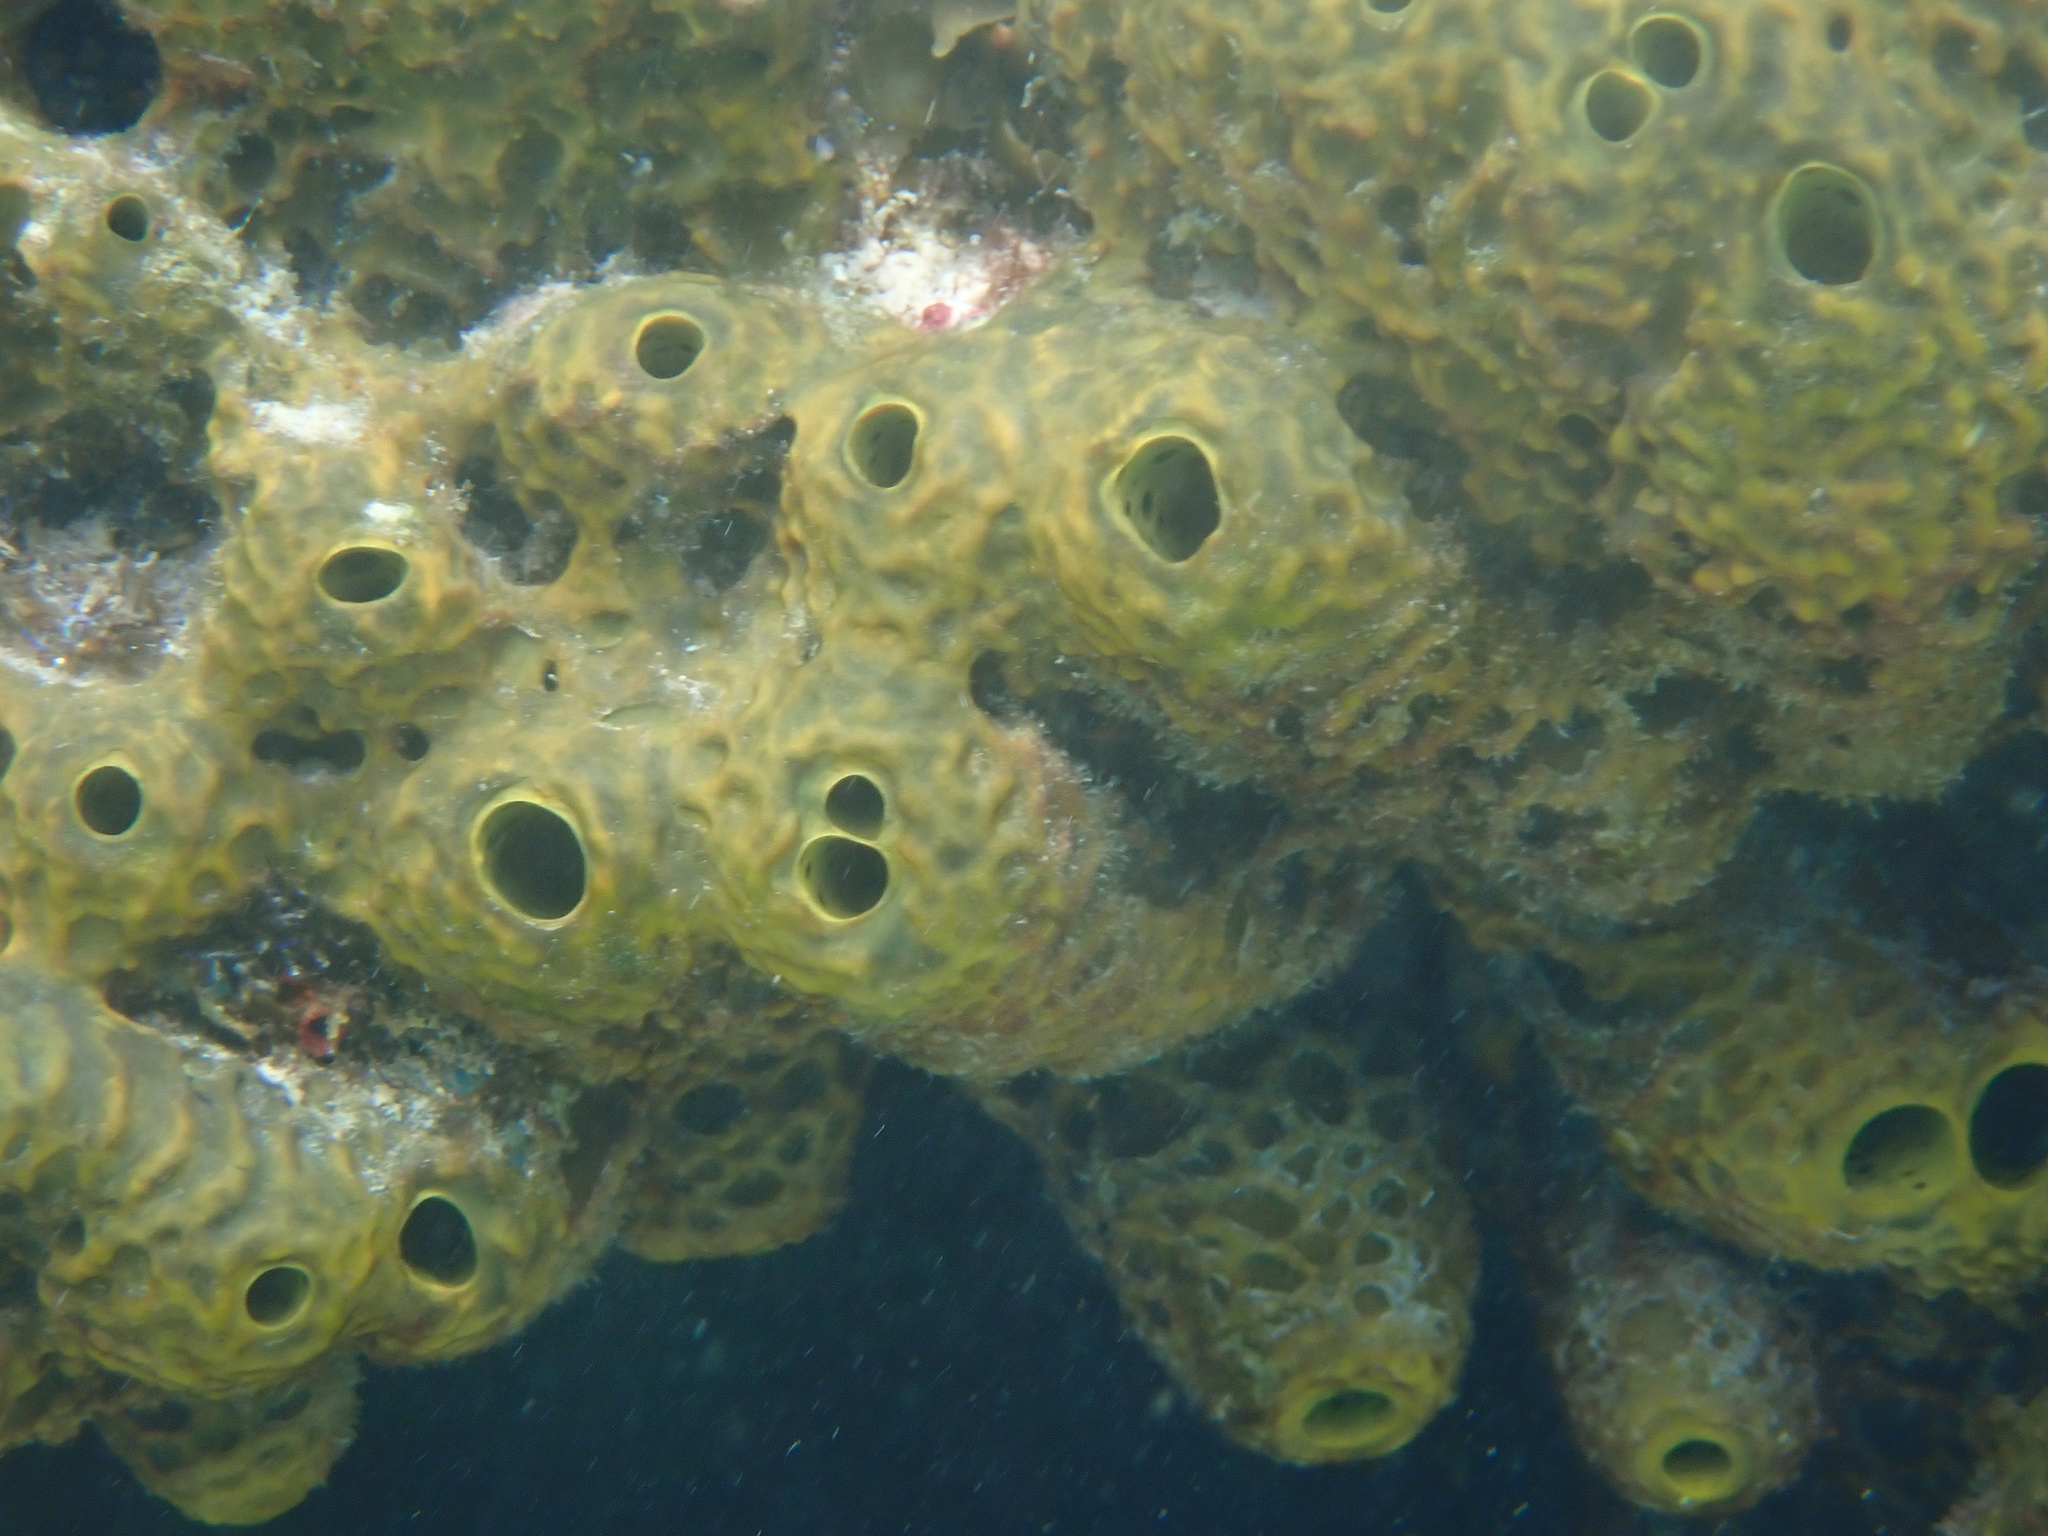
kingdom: Animalia
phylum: Porifera
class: Demospongiae
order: Verongiida
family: Aplysinidae
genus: Verongula
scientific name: Verongula rigida
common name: Pitted sponge
